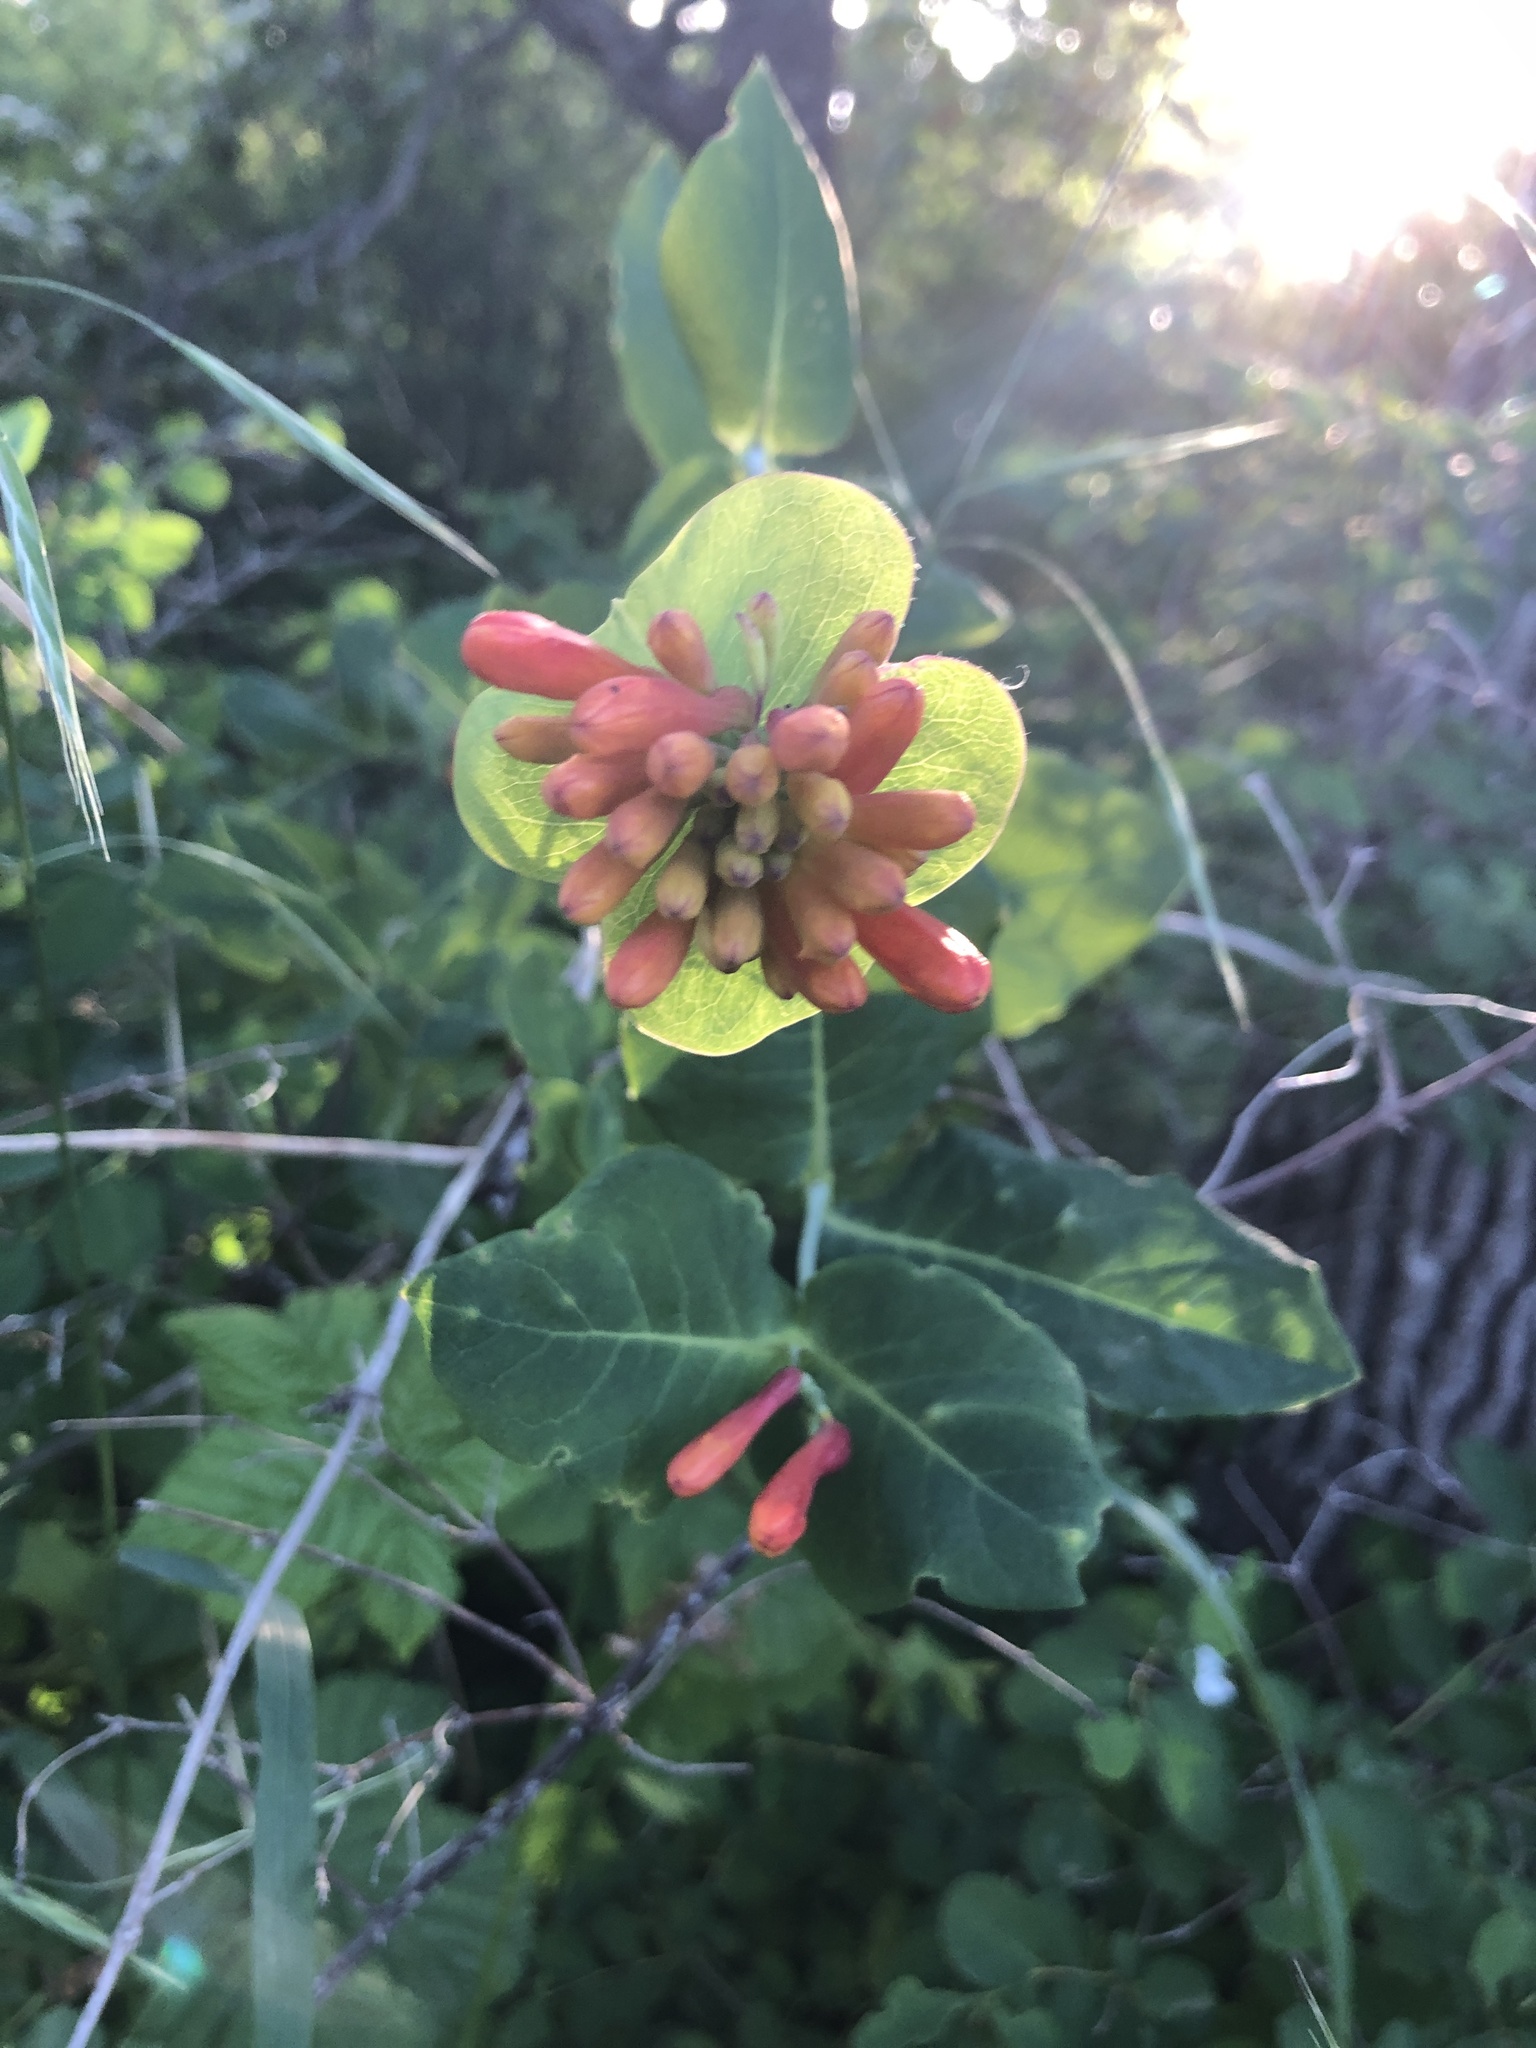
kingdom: Plantae
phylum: Tracheophyta
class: Magnoliopsida
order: Dipsacales
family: Caprifoliaceae
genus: Lonicera
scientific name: Lonicera ciliosa
